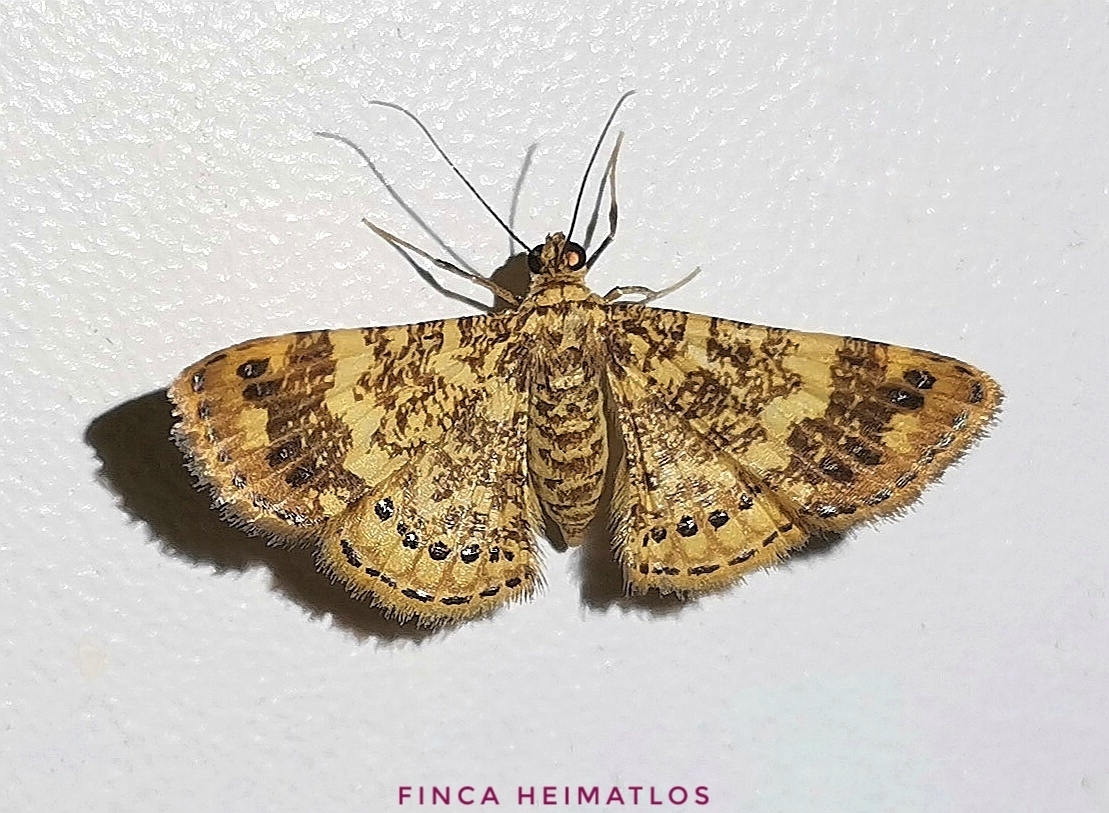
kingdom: Animalia
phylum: Arthropoda
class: Insecta
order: Lepidoptera
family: Geometridae
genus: Aplogompha
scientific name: Aplogompha lafayi
